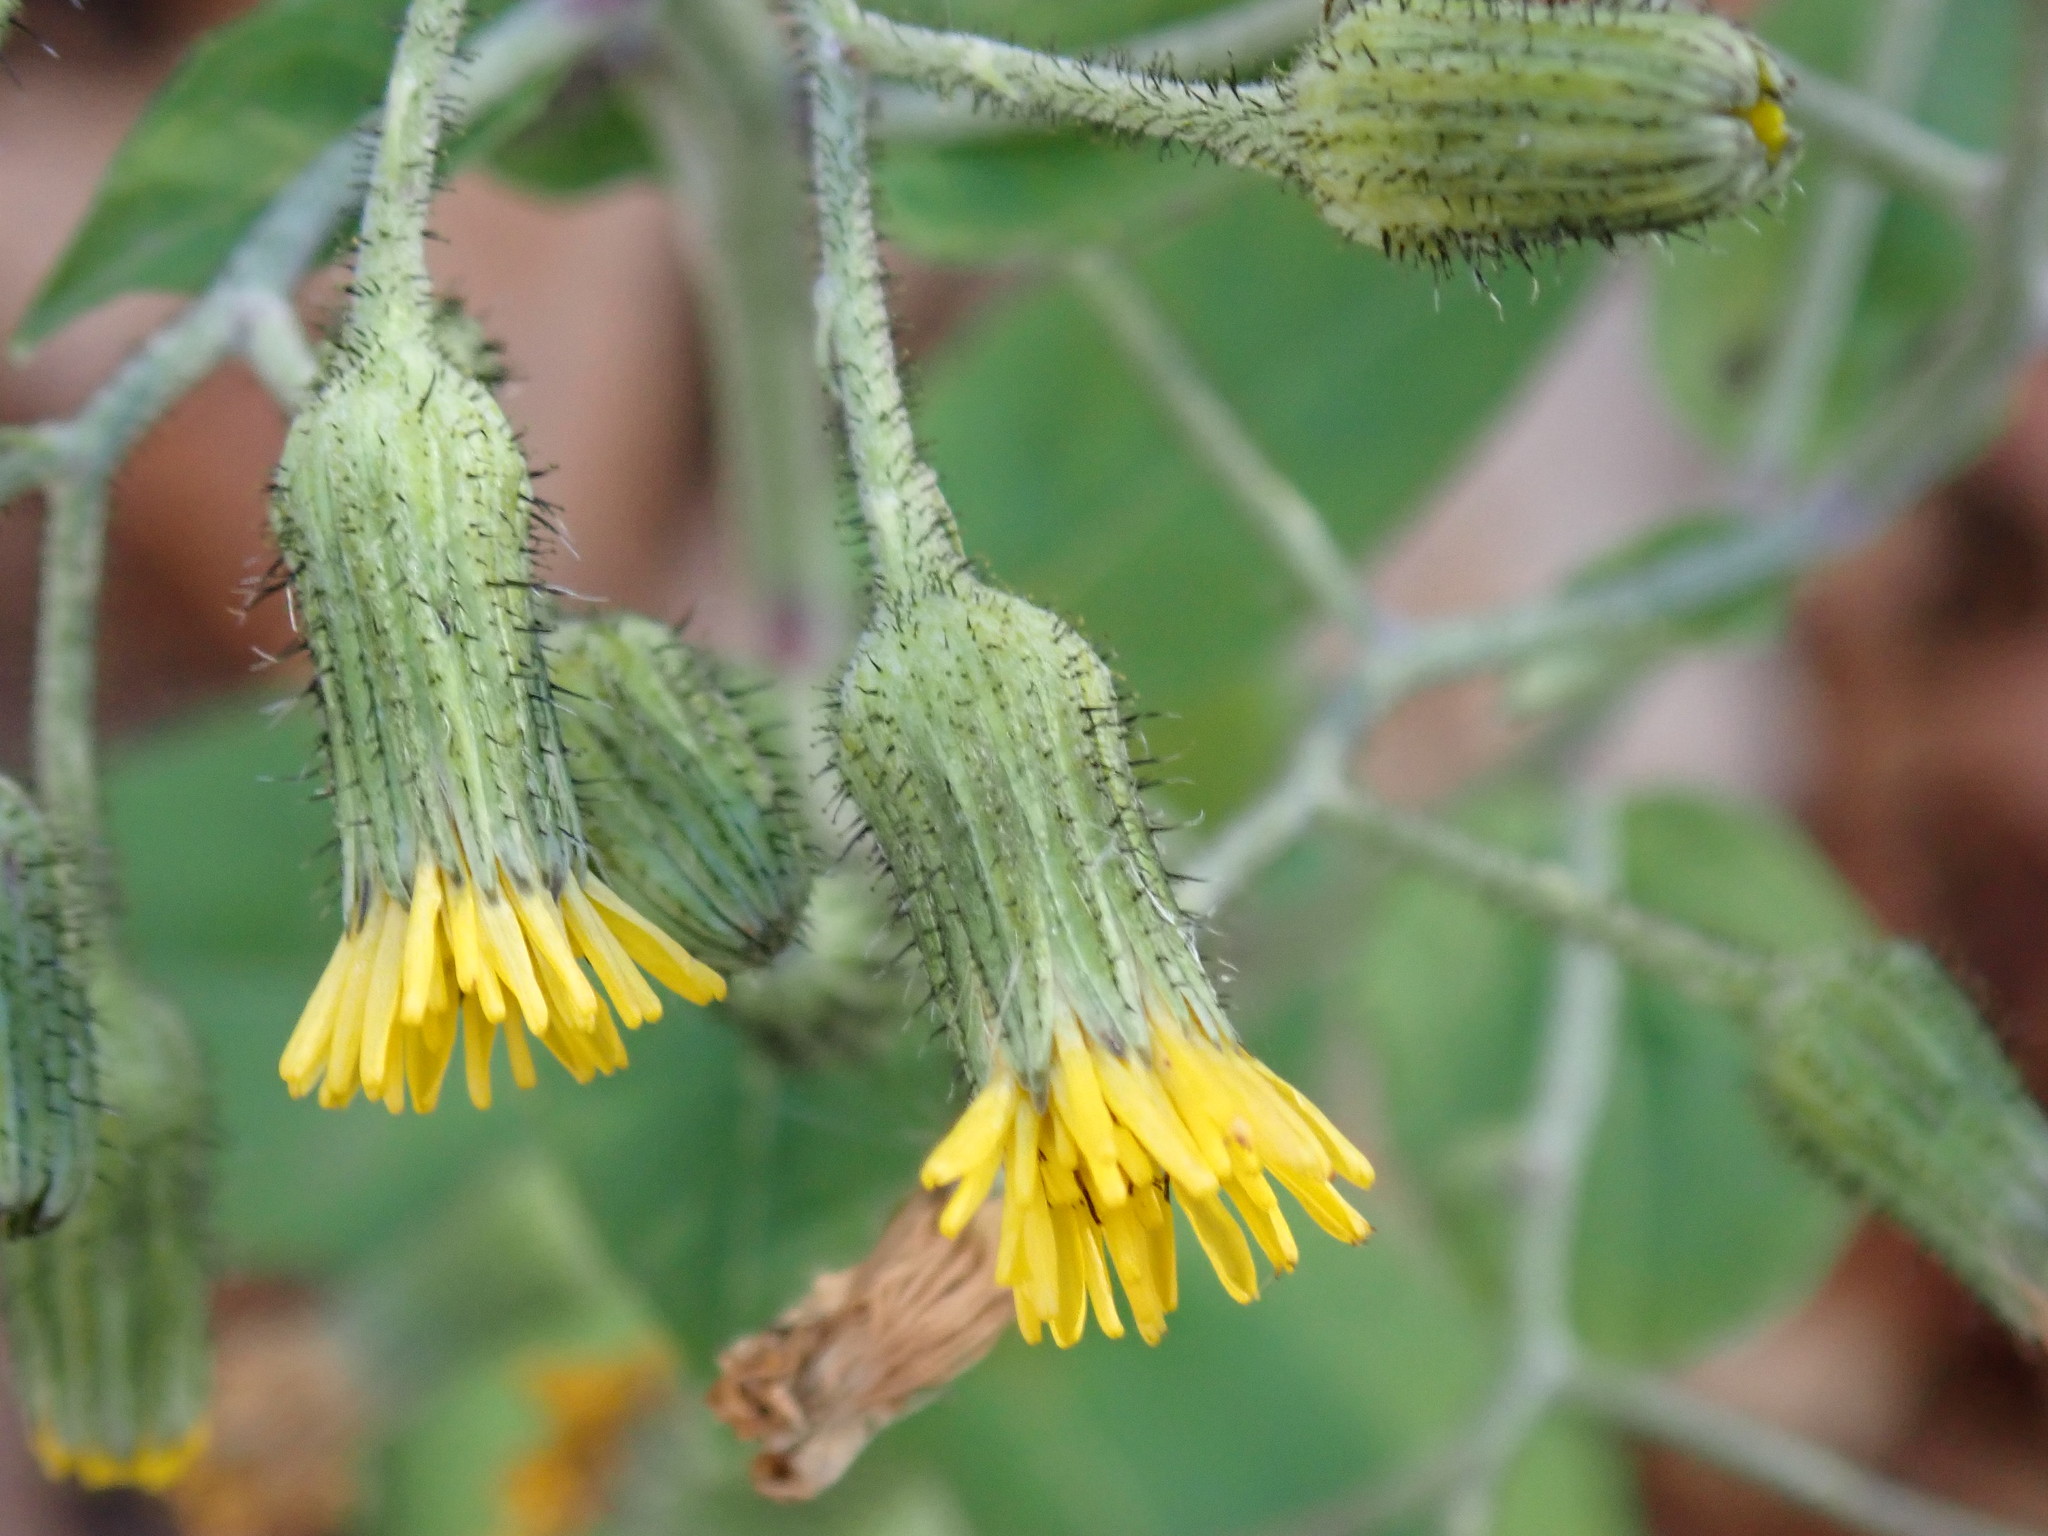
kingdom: Plantae
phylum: Tracheophyta
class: Magnoliopsida
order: Asterales
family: Asteraceae
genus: Hieracium
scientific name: Hieracium scabrum
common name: Rough hawkweed
